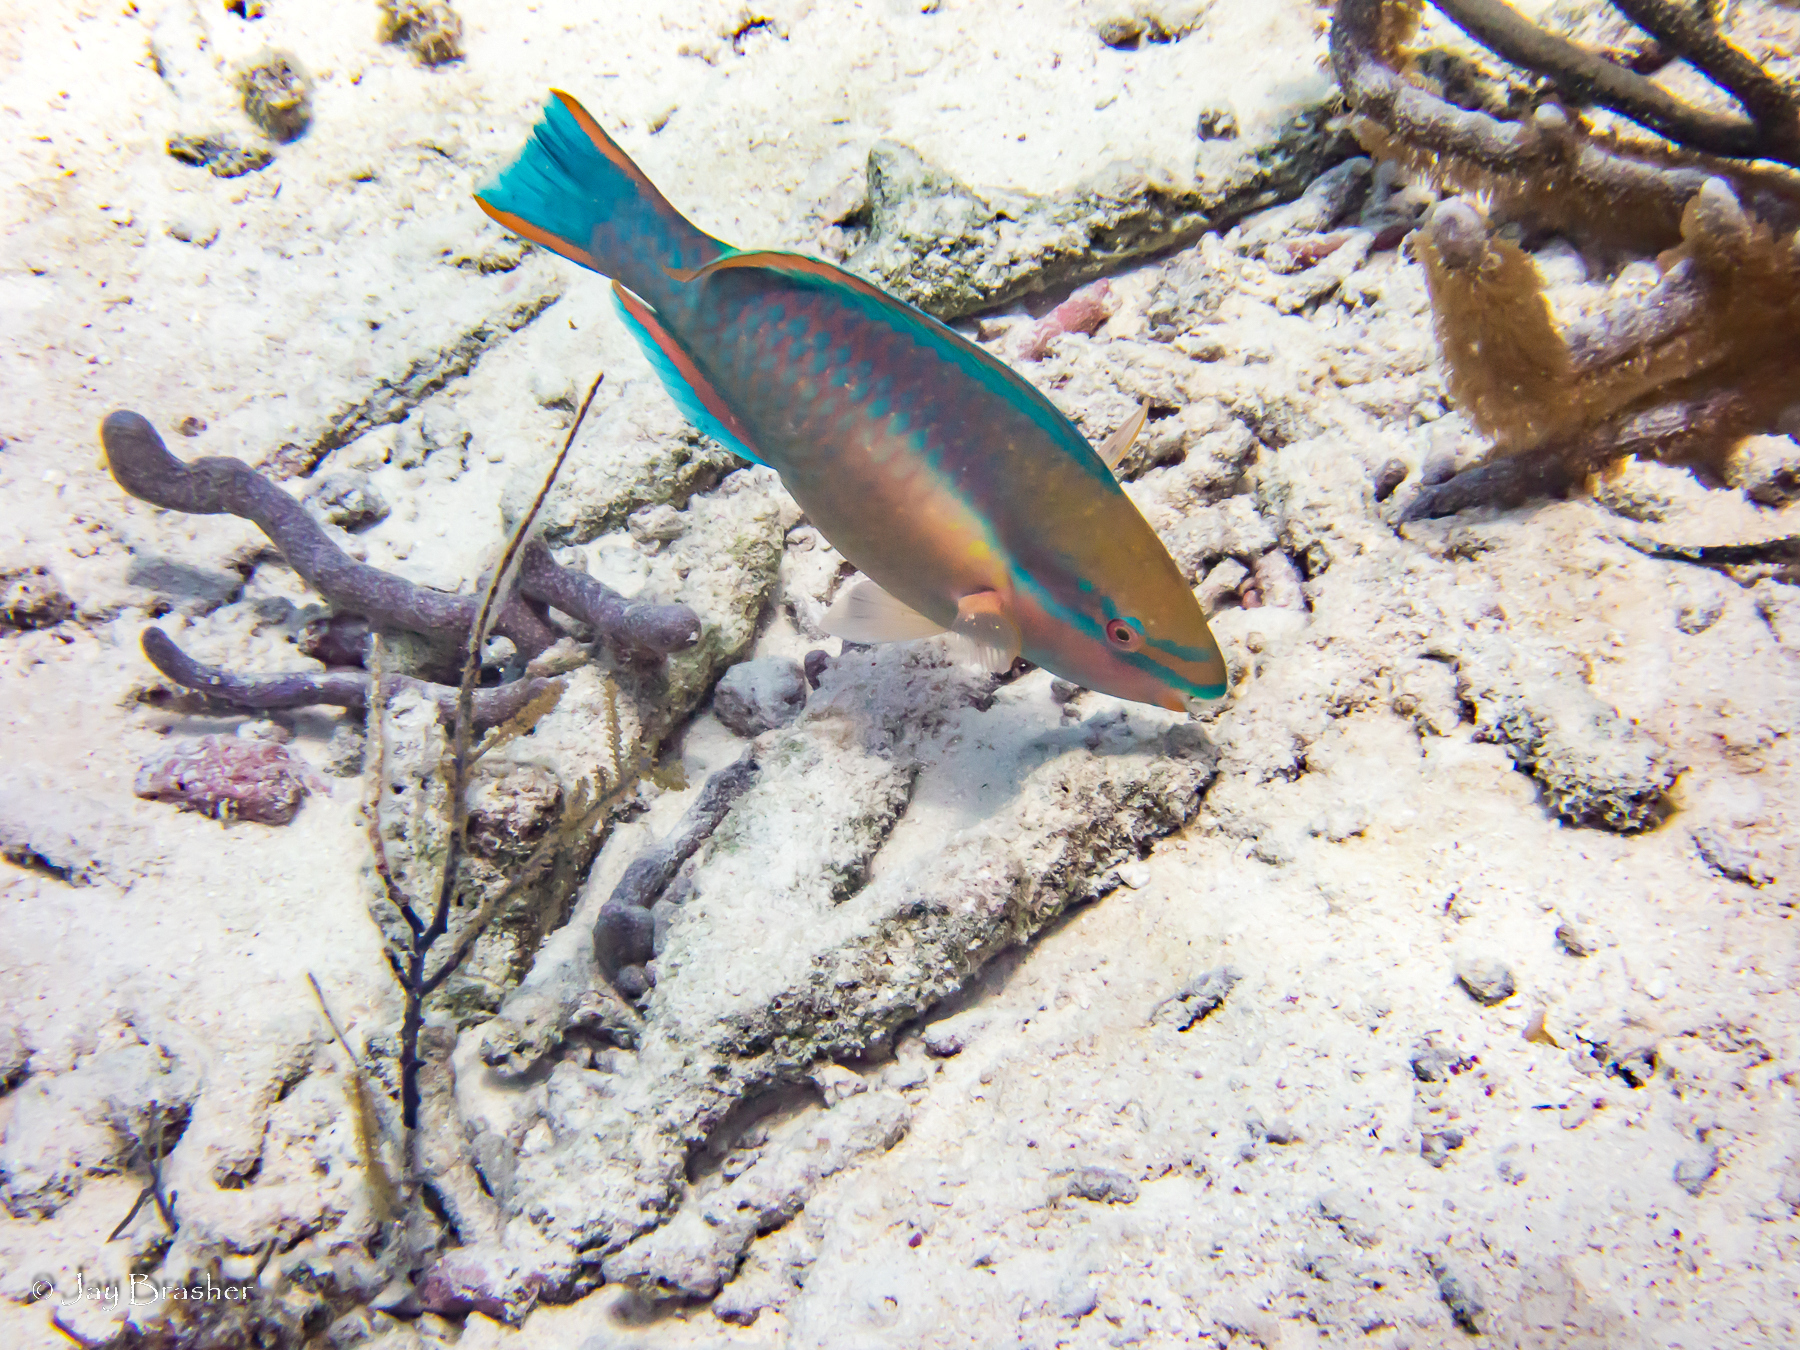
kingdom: Animalia
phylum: Chordata
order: Perciformes
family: Scaridae
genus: Scarus
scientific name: Scarus taeniopterus
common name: Princess parrotfish
